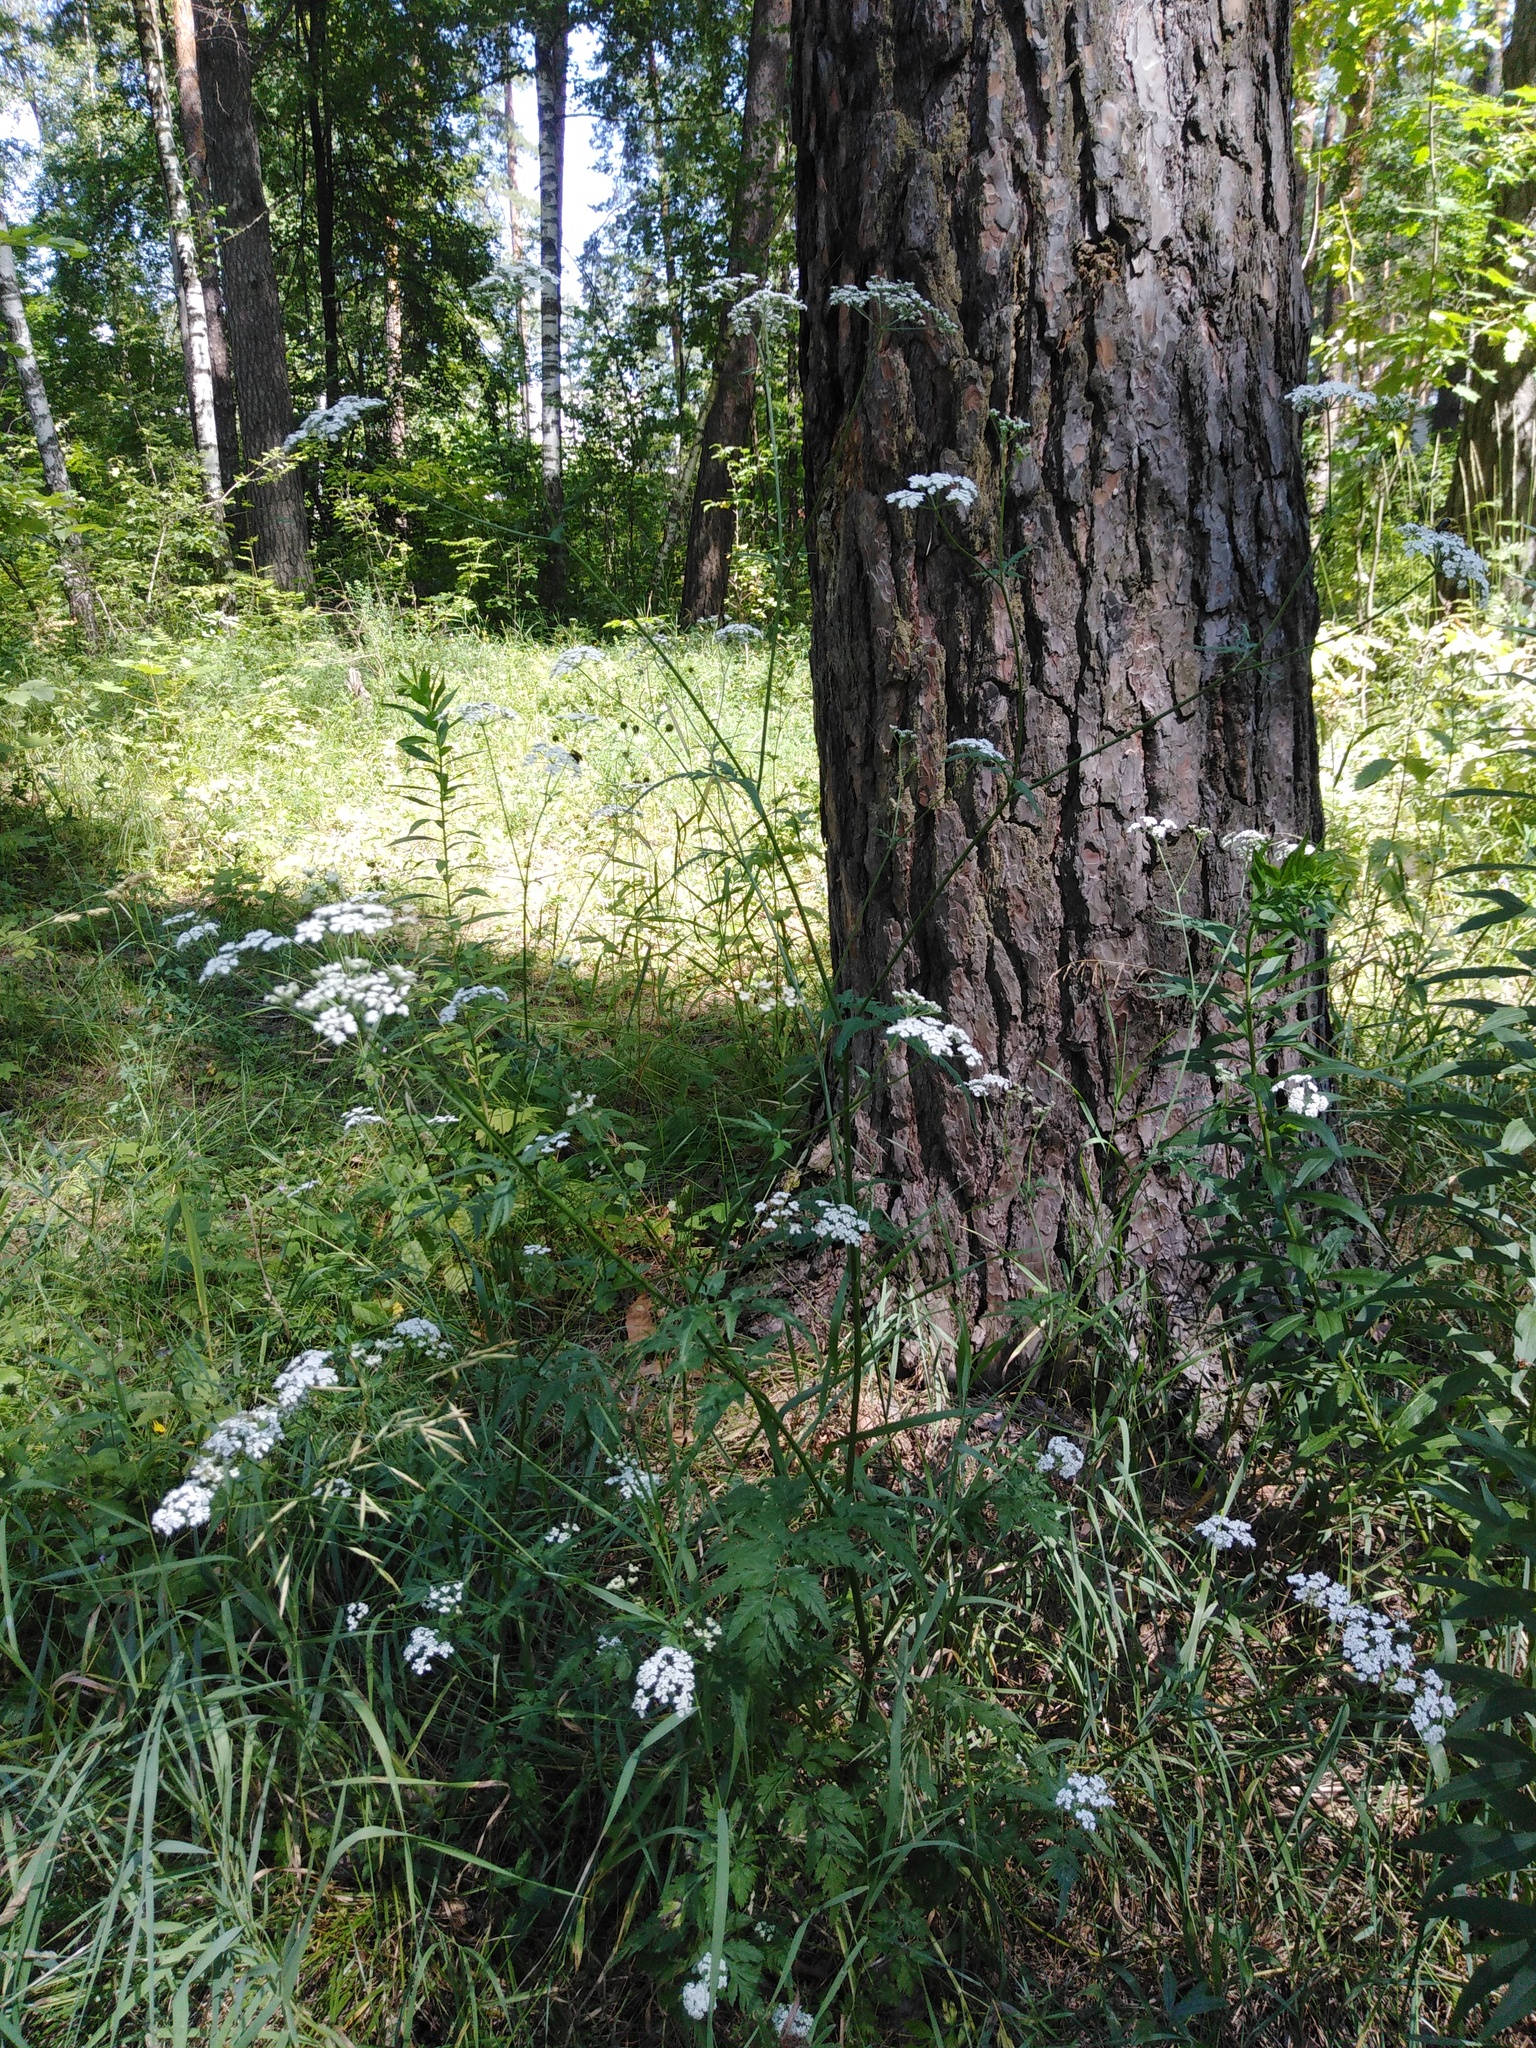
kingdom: Plantae
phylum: Tracheophyta
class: Magnoliopsida
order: Apiales
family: Apiaceae
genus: Torilis
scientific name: Torilis japonica
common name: Upright hedge-parsley
